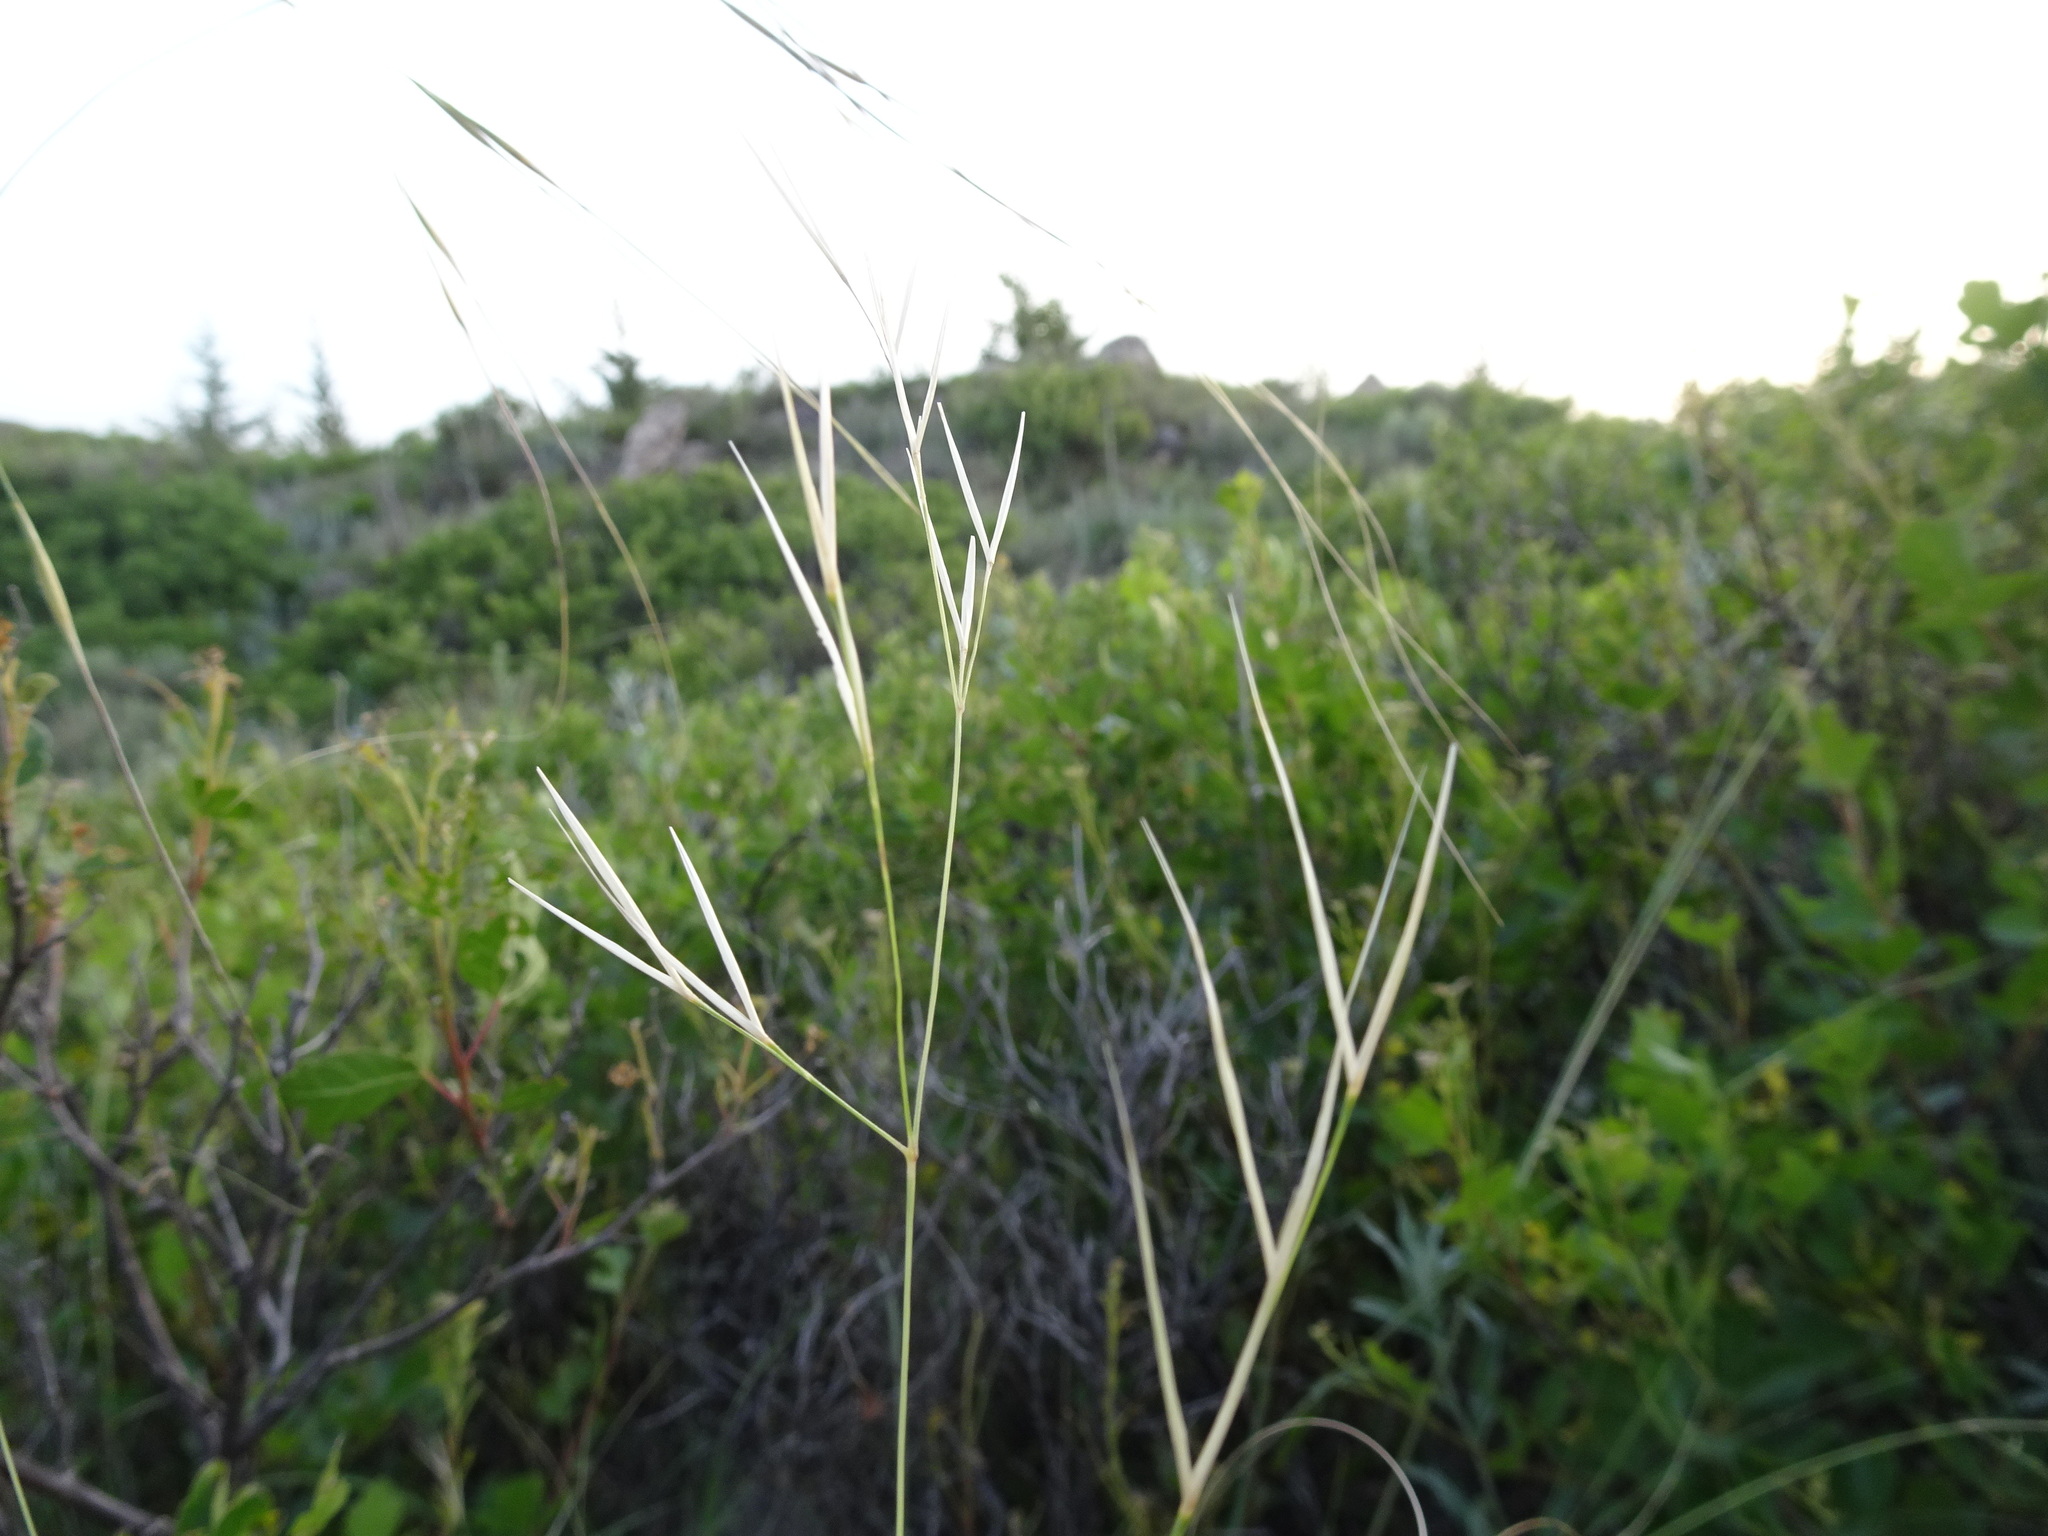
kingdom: Plantae
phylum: Tracheophyta
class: Liliopsida
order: Poales
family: Poaceae
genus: Hesperostipa
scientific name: Hesperostipa comata
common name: Needle-and-thread grass
